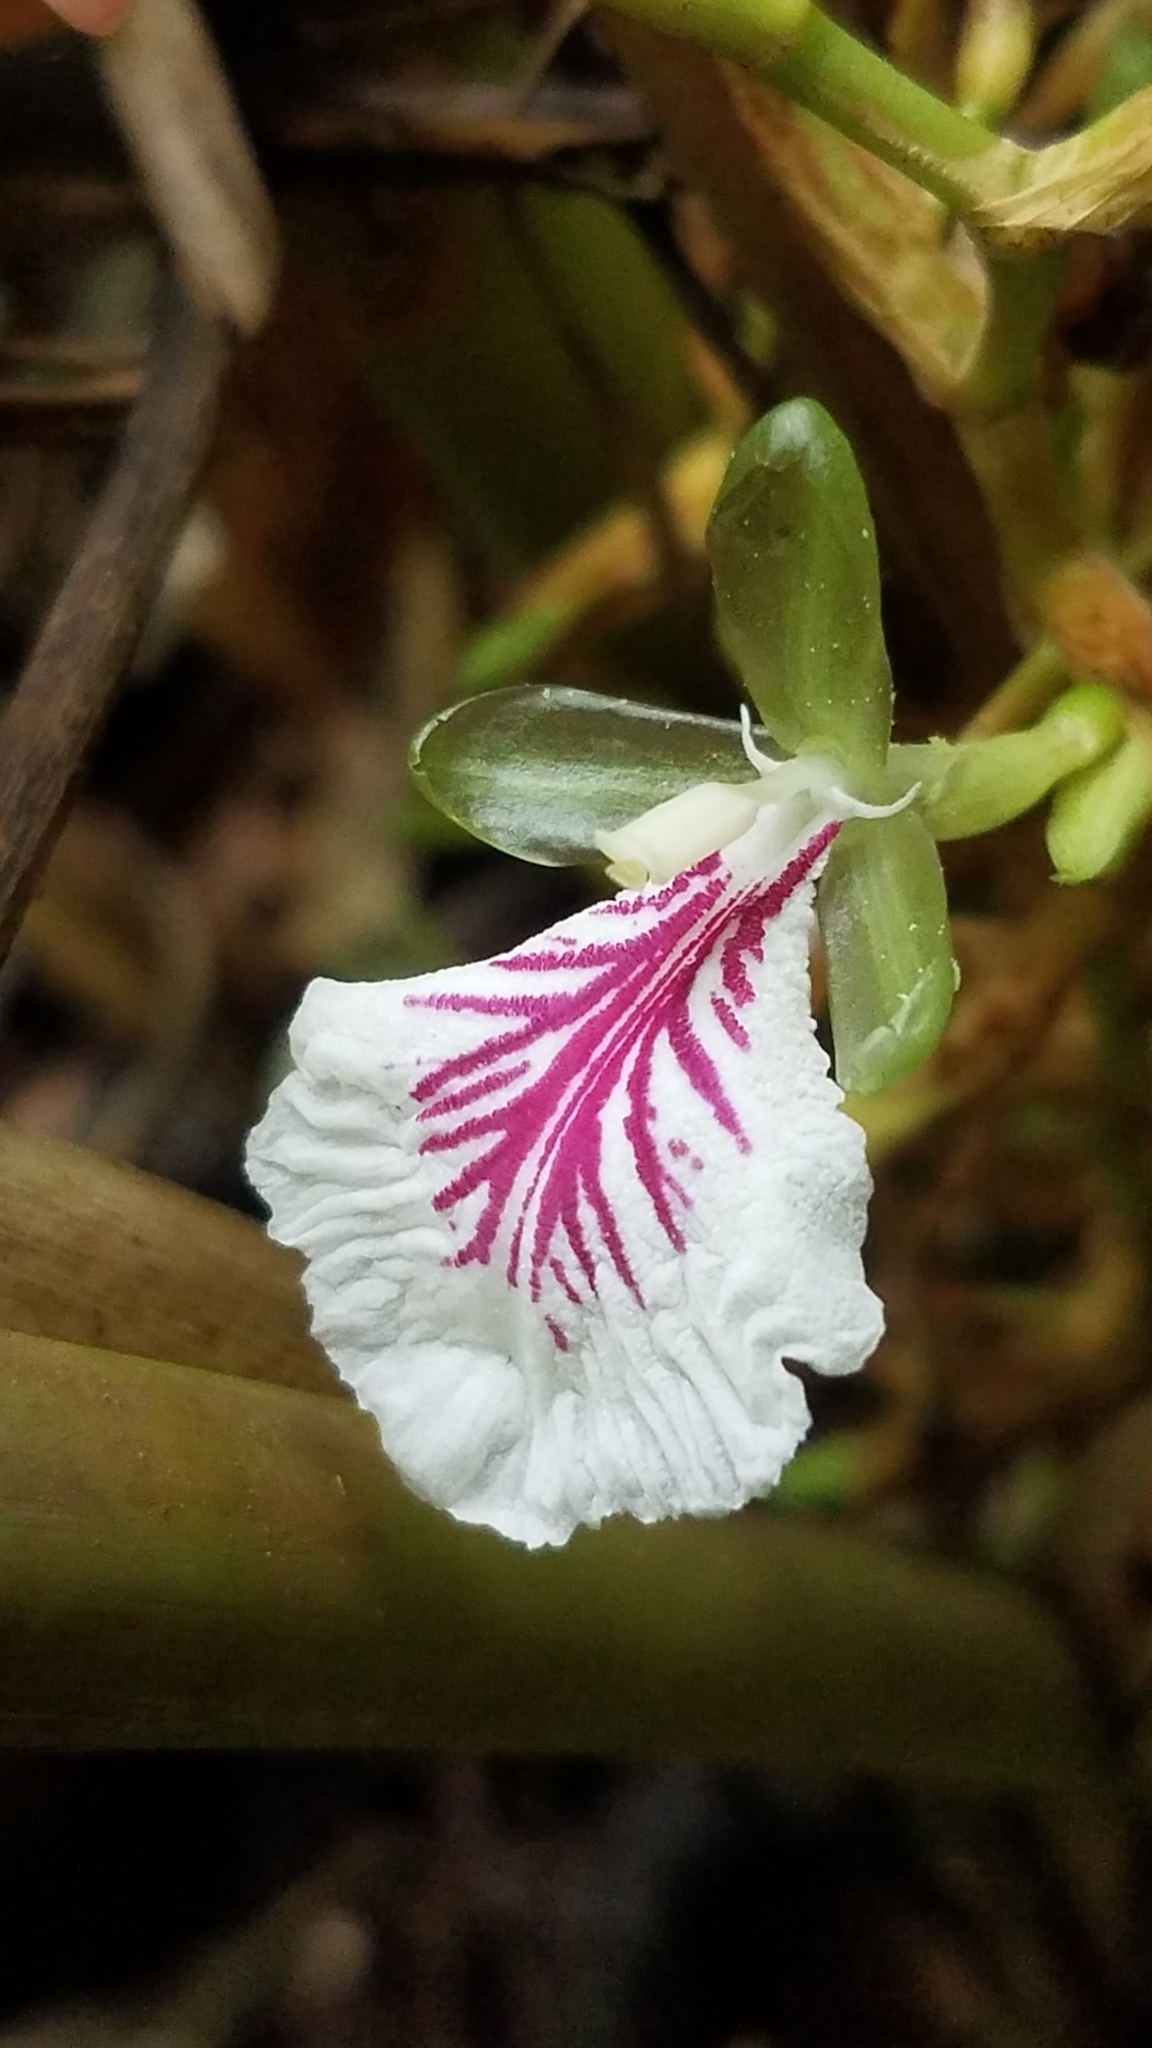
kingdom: Plantae
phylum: Tracheophyta
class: Liliopsida
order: Zingiberales
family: Zingiberaceae
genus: Elettaria
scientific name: Elettaria cardamomum
